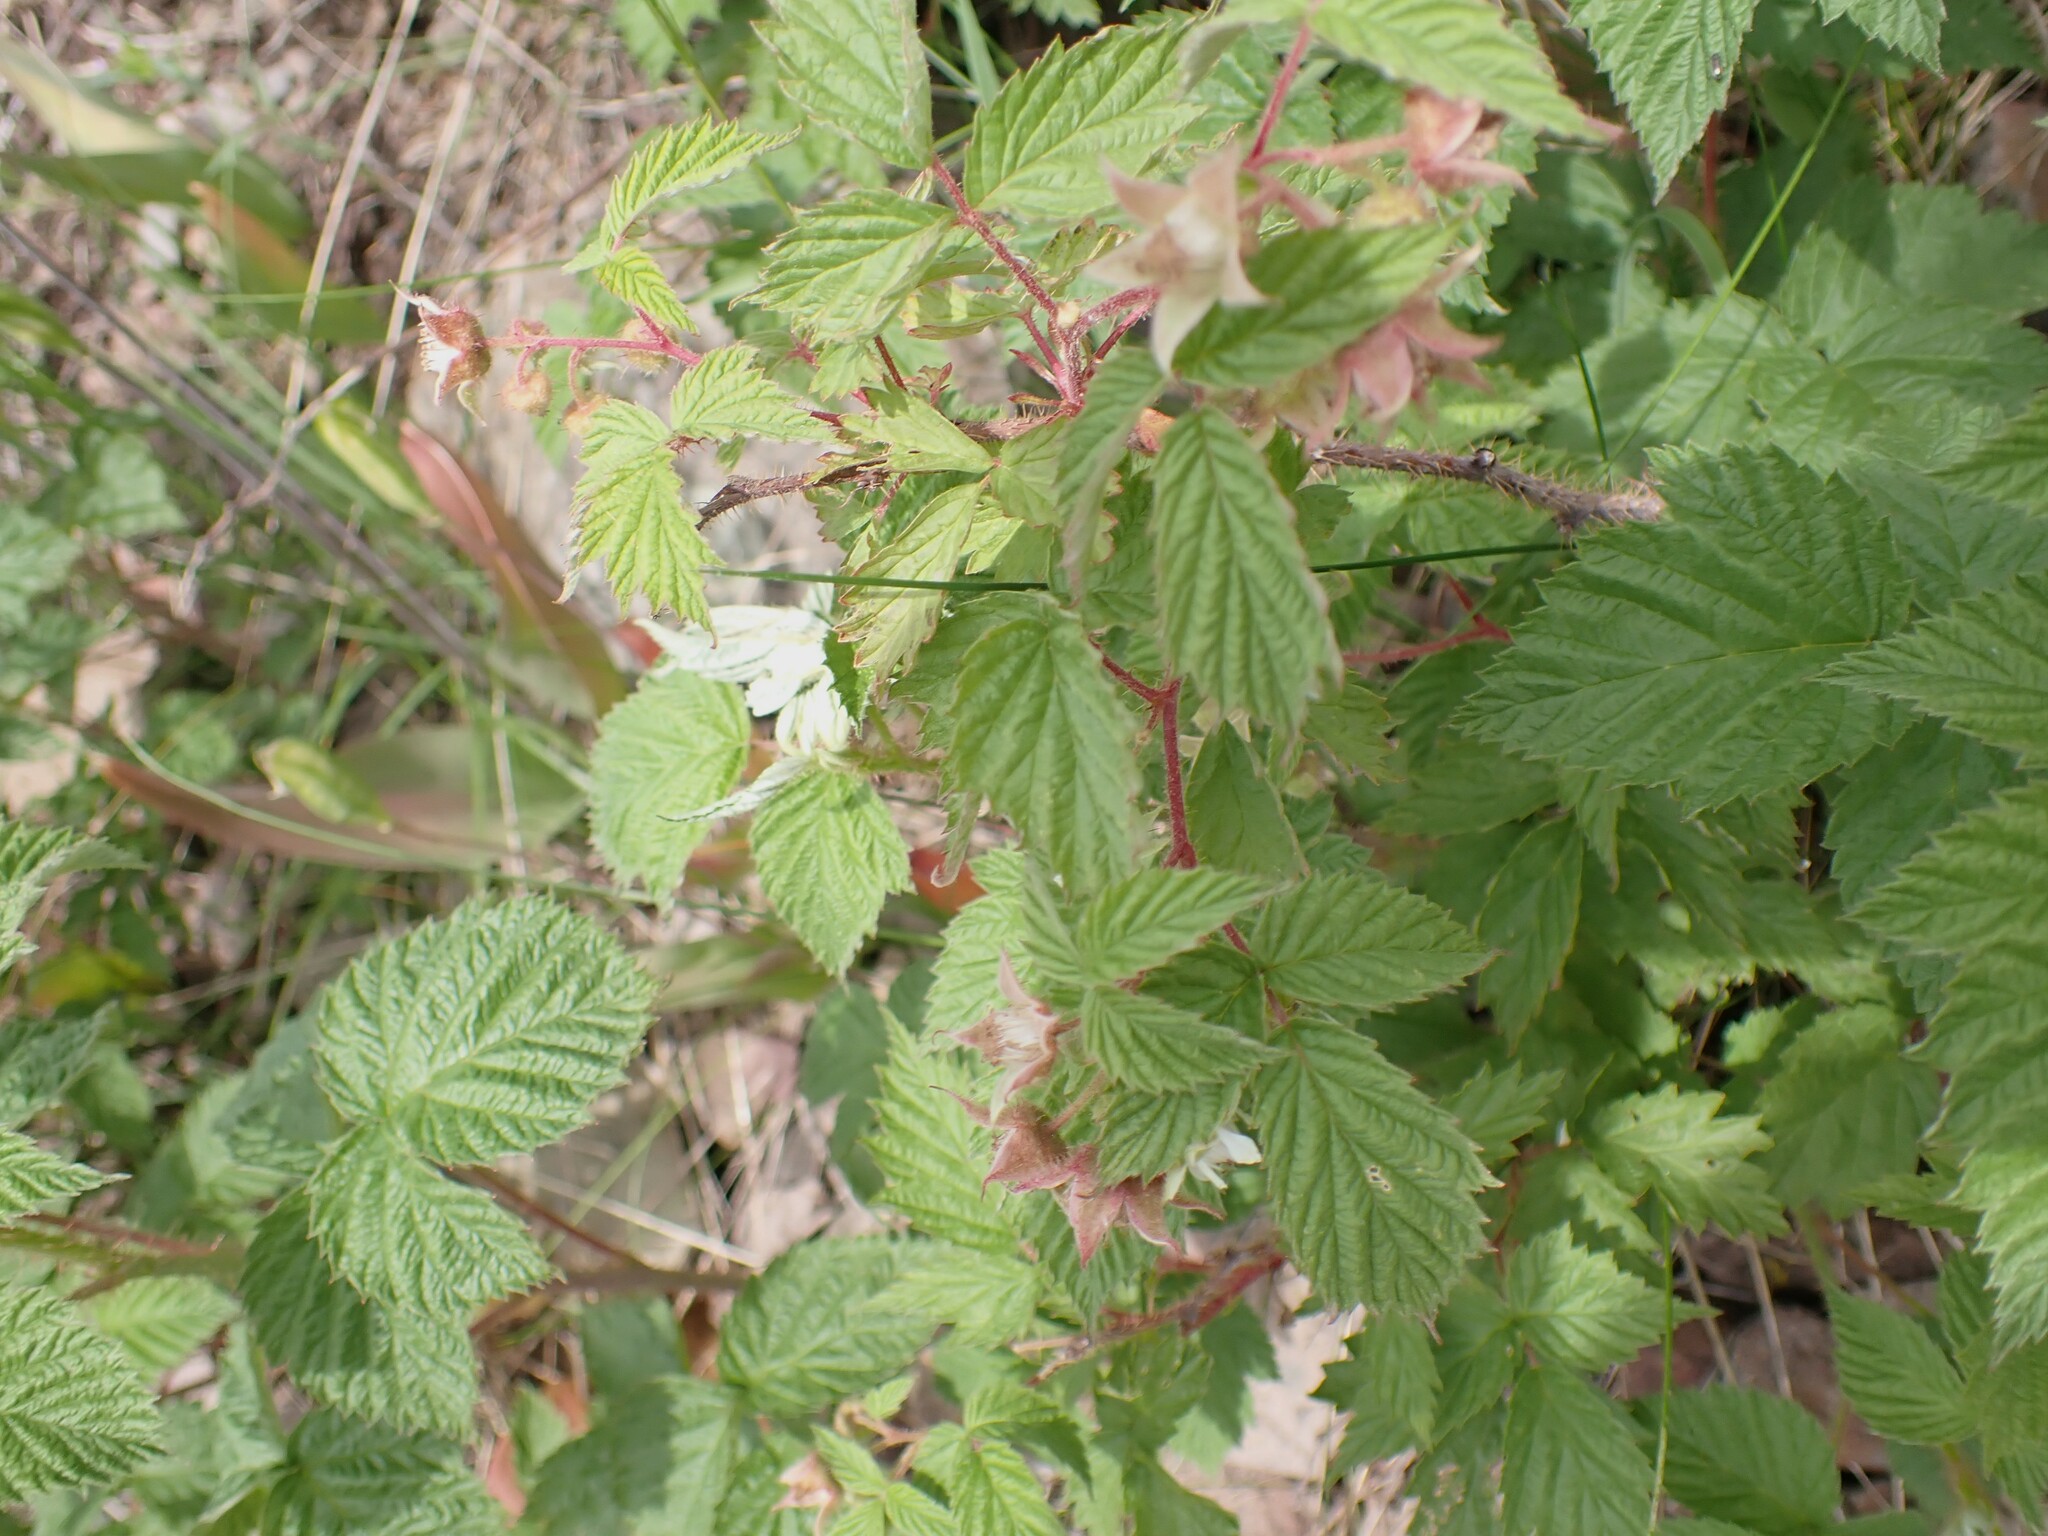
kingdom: Plantae
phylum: Tracheophyta
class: Magnoliopsida
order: Rosales
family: Rosaceae
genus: Rubus
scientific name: Rubus idaeus
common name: Raspberry
